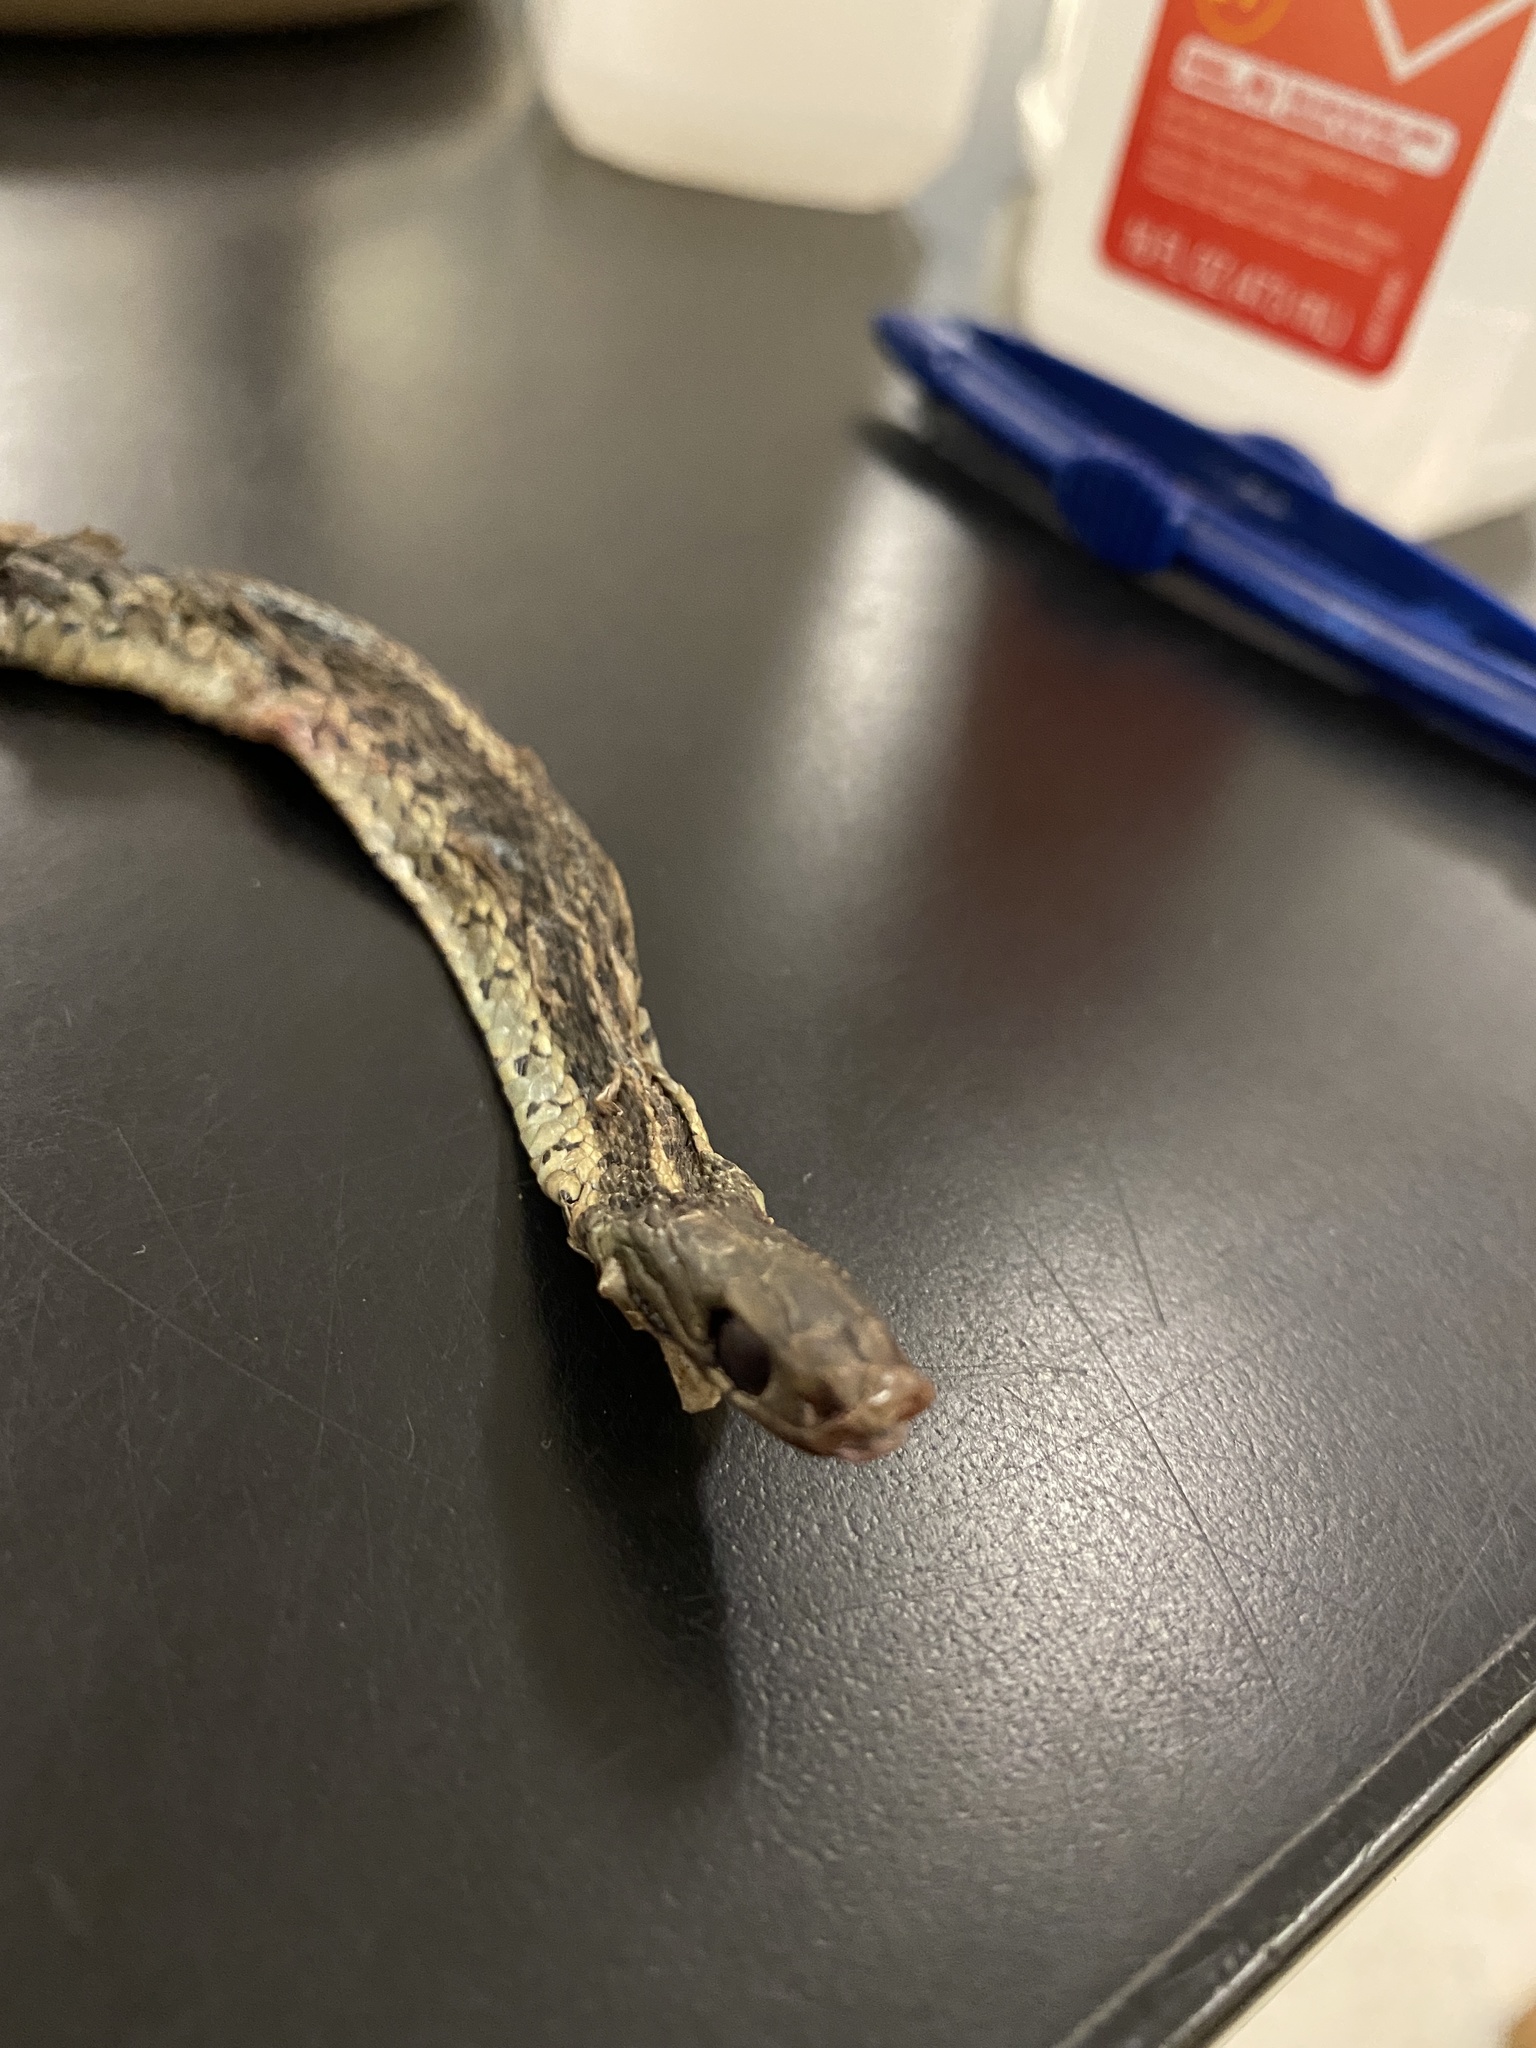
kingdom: Animalia
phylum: Chordata
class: Squamata
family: Colubridae
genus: Thamnophis
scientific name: Thamnophis sirtalis
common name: Common garter snake
